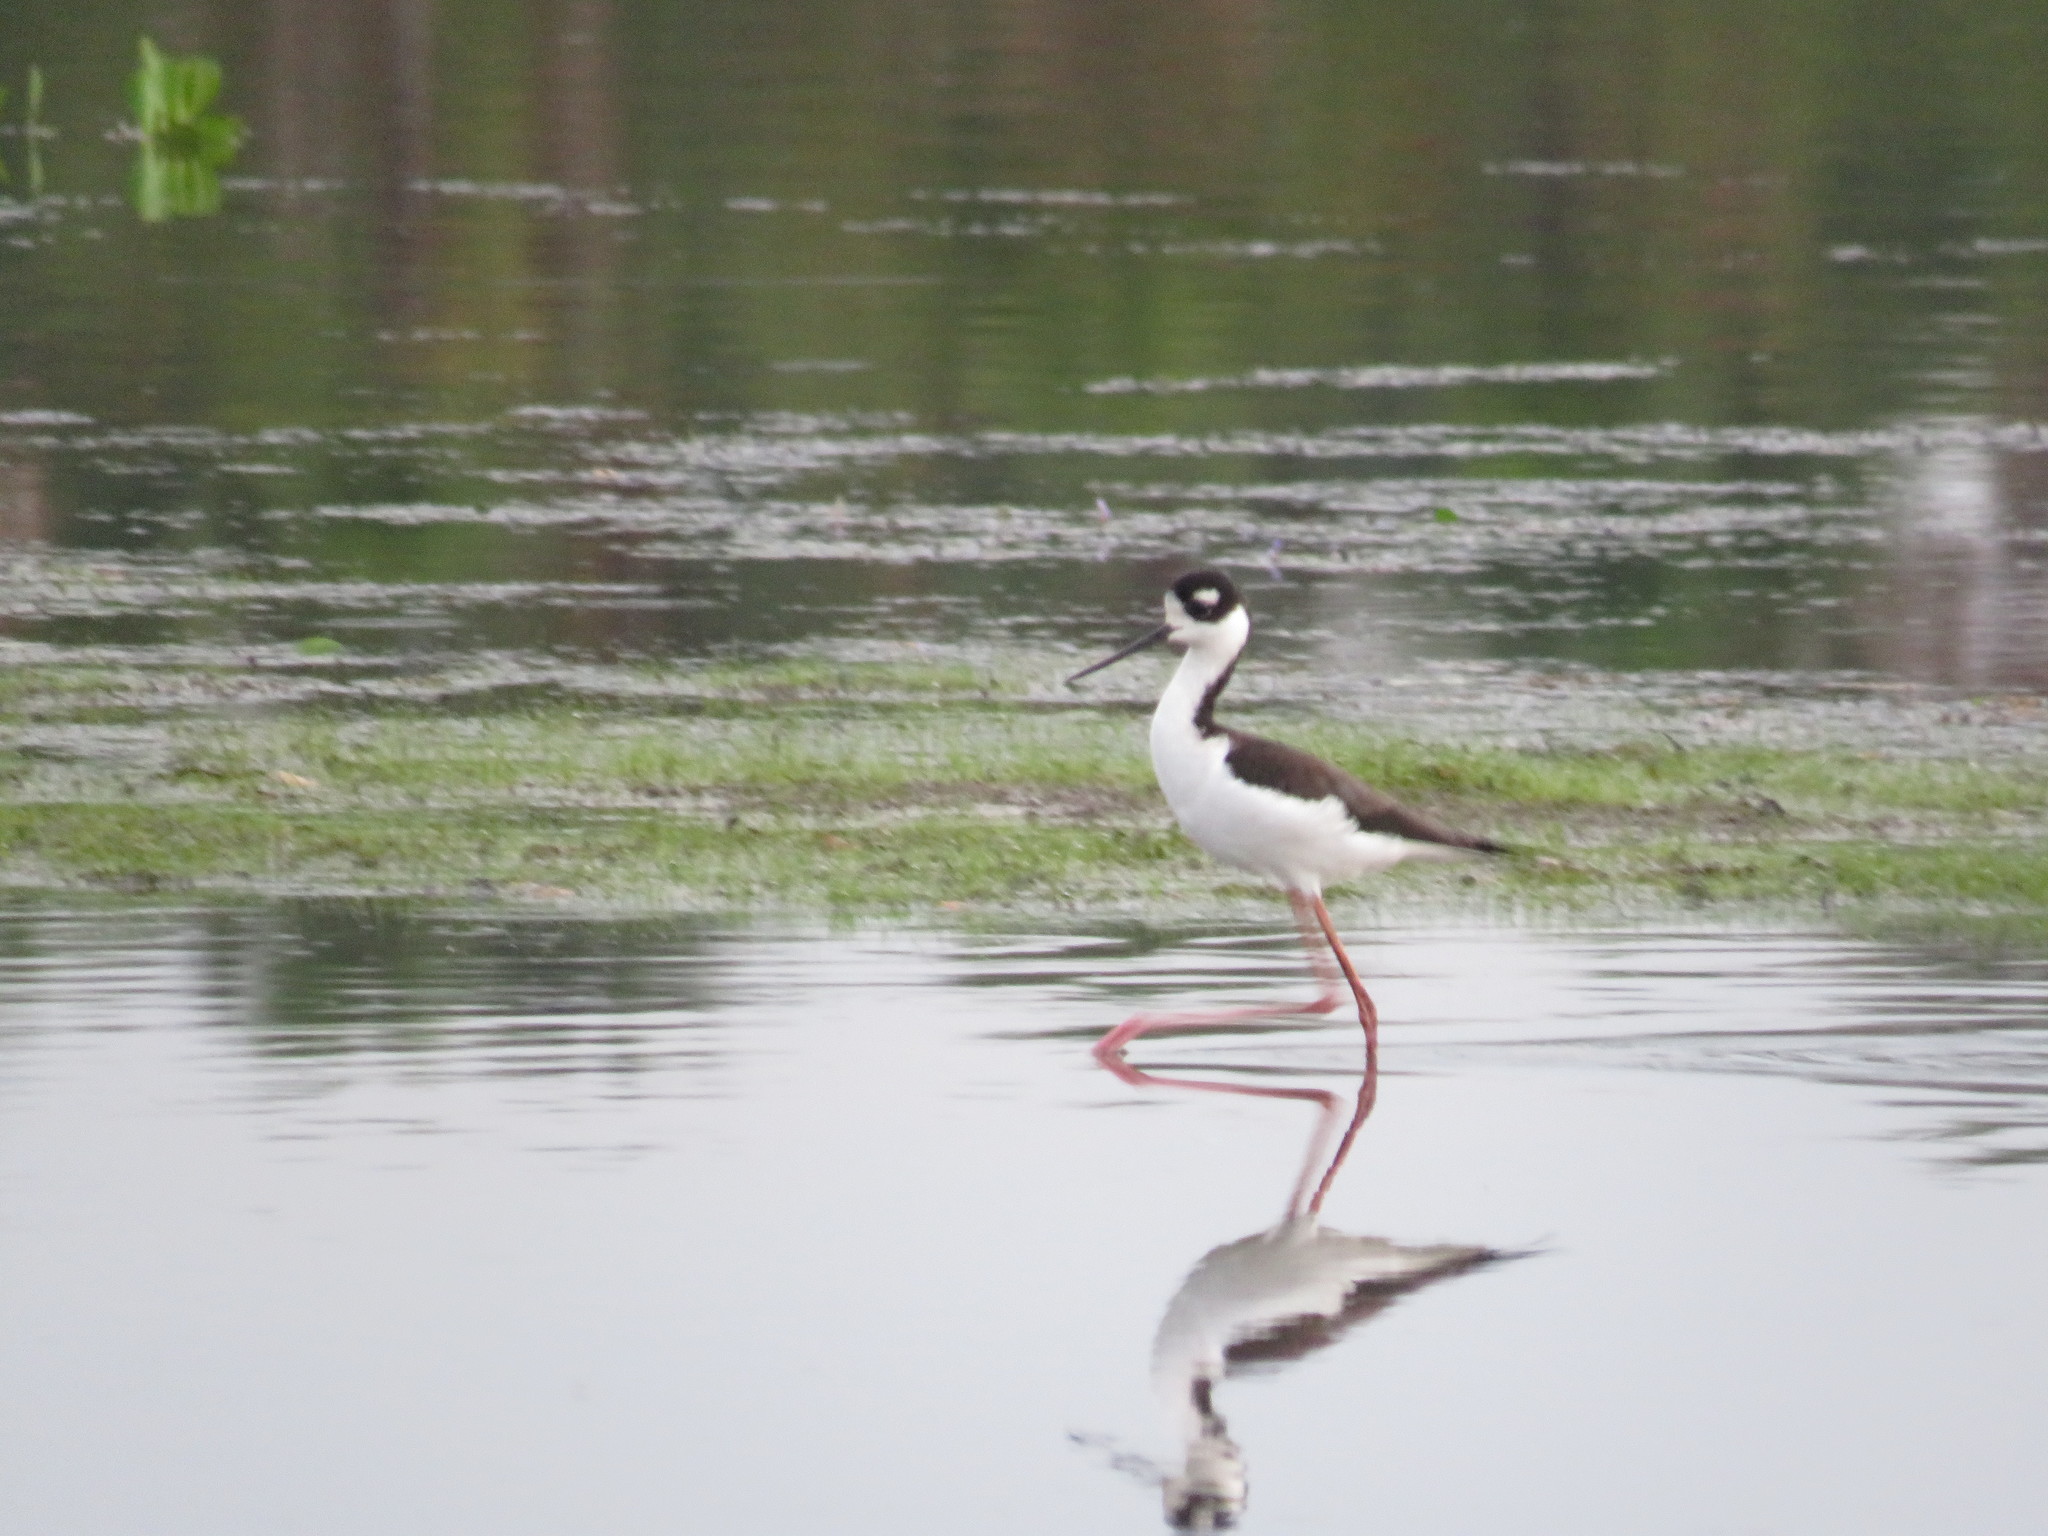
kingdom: Animalia
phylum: Chordata
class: Aves
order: Charadriiformes
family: Recurvirostridae
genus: Himantopus
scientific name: Himantopus mexicanus
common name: Black-necked stilt
